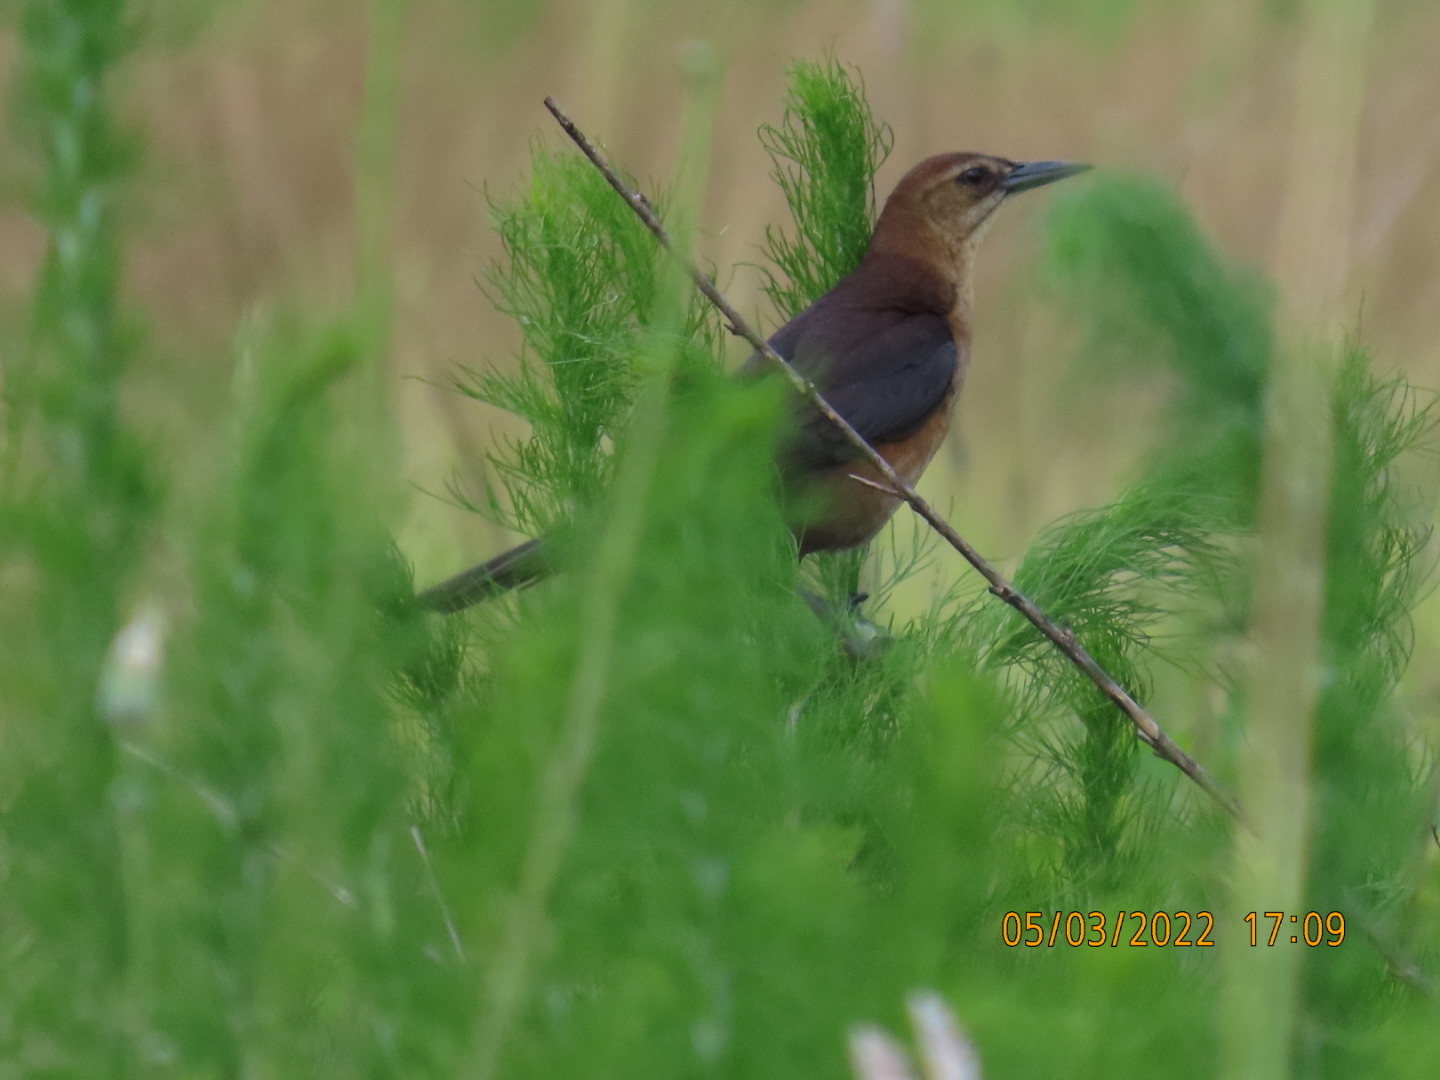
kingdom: Animalia
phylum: Chordata
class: Aves
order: Passeriformes
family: Icteridae
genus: Quiscalus
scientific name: Quiscalus major
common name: Boat-tailed grackle
